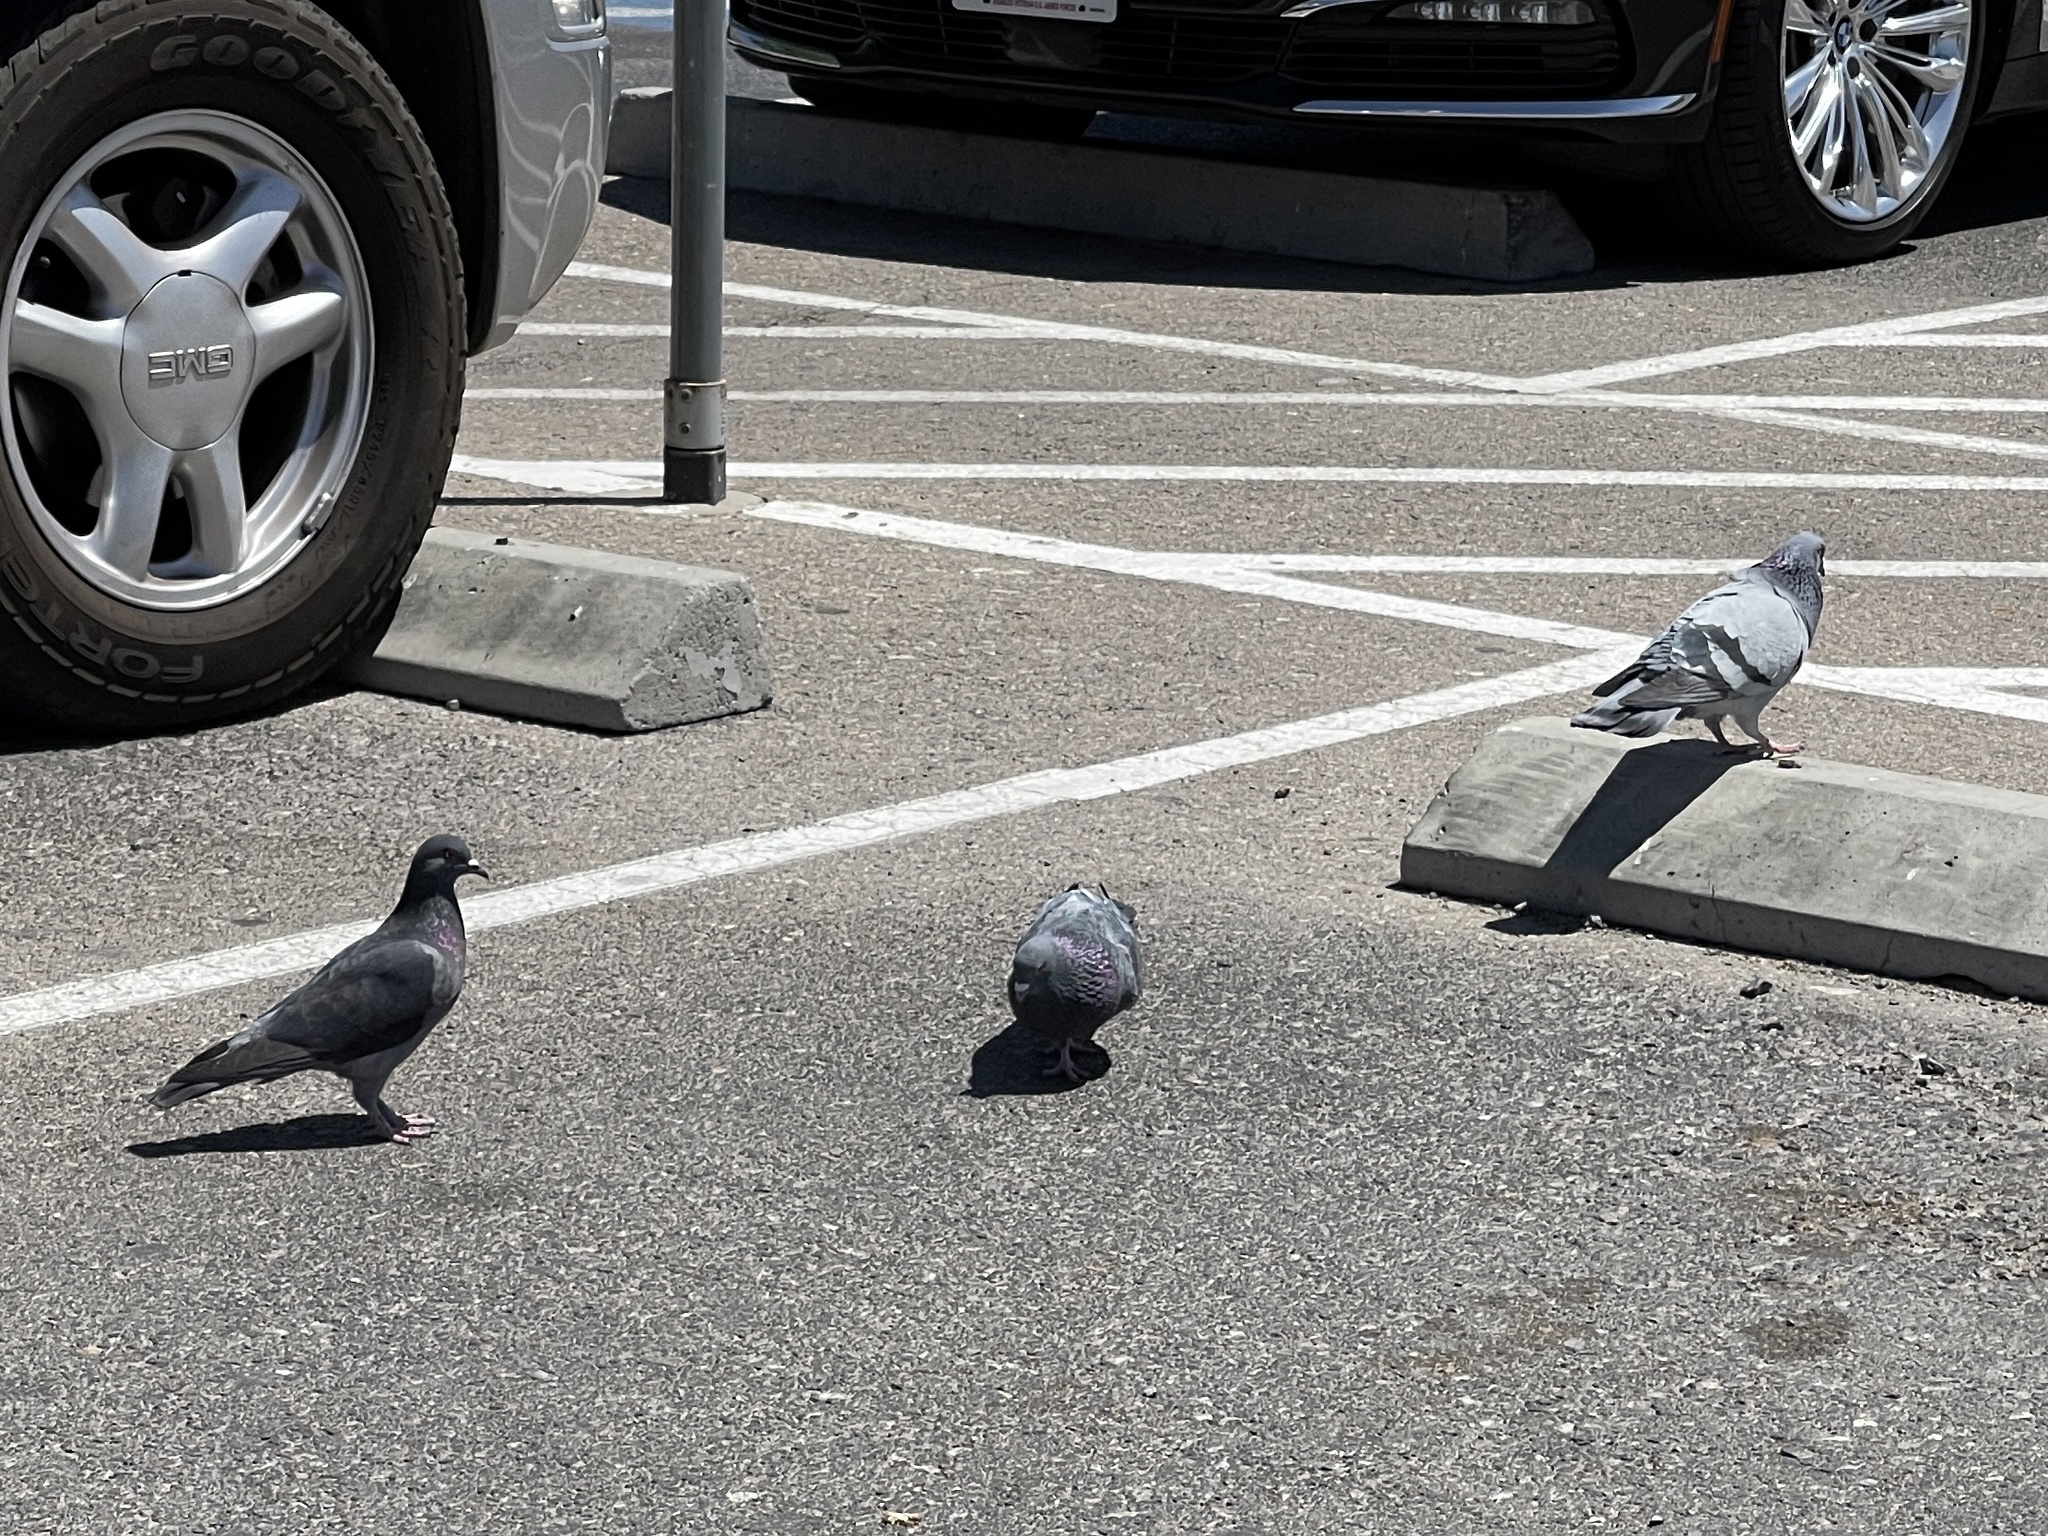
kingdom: Animalia
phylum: Chordata
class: Aves
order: Columbiformes
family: Columbidae
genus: Columba
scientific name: Columba livia
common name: Rock pigeon
